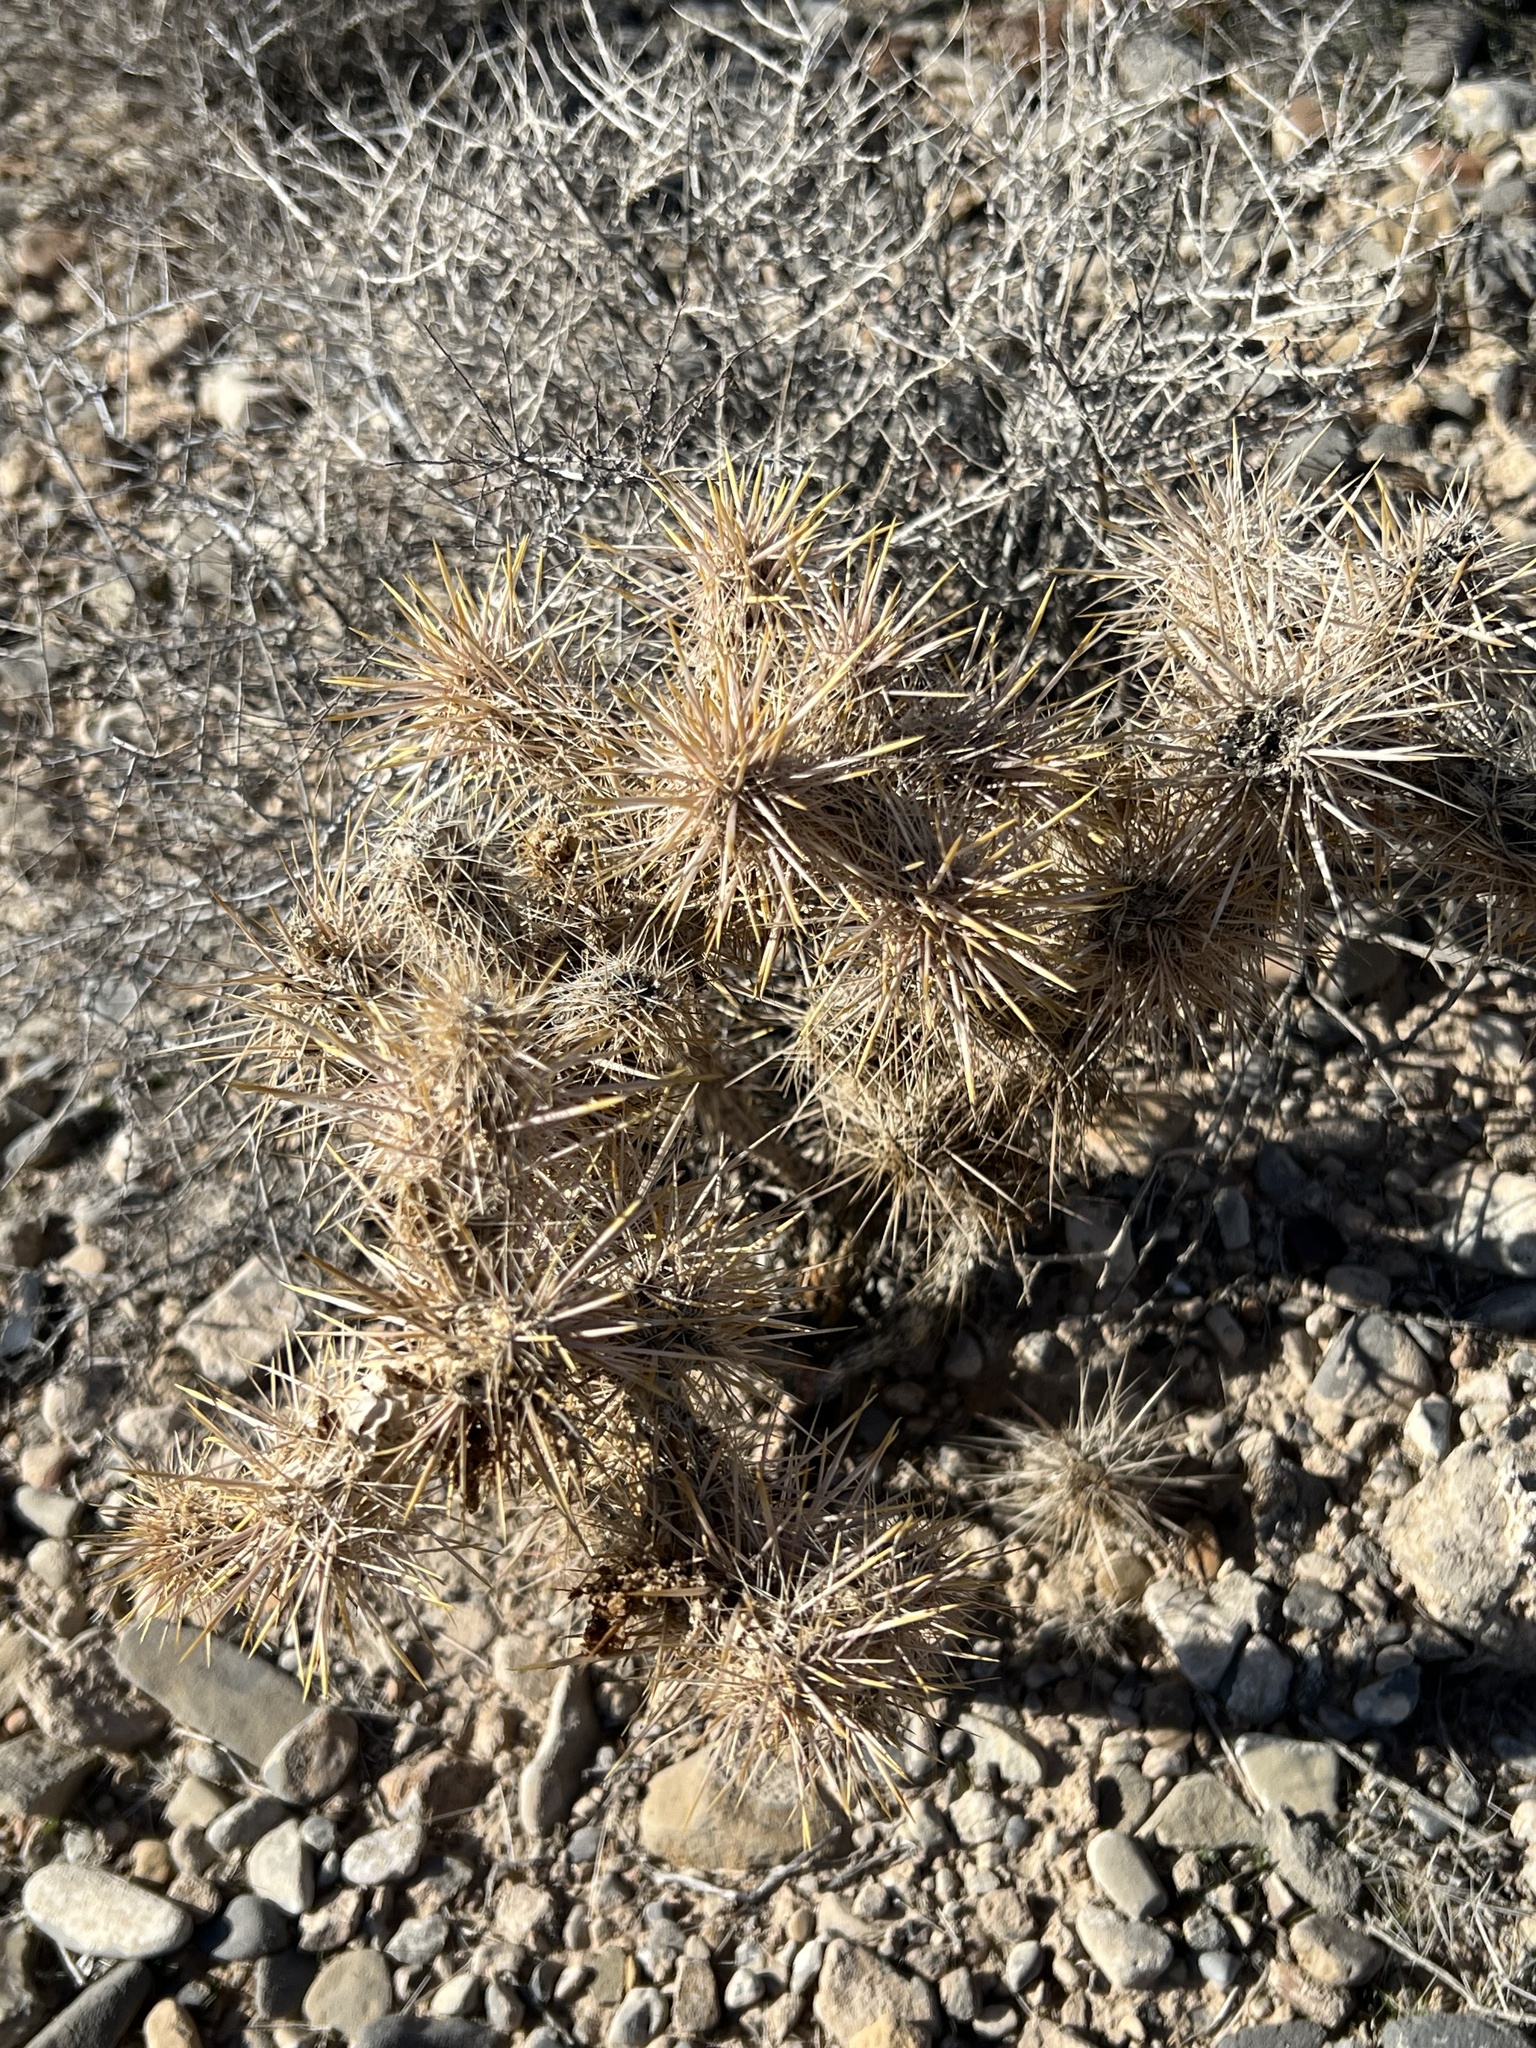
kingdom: Plantae
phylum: Tracheophyta
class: Magnoliopsida
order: Caryophyllales
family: Cactaceae
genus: Cylindropuntia
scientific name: Cylindropuntia echinocarpa
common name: Ground cholla
